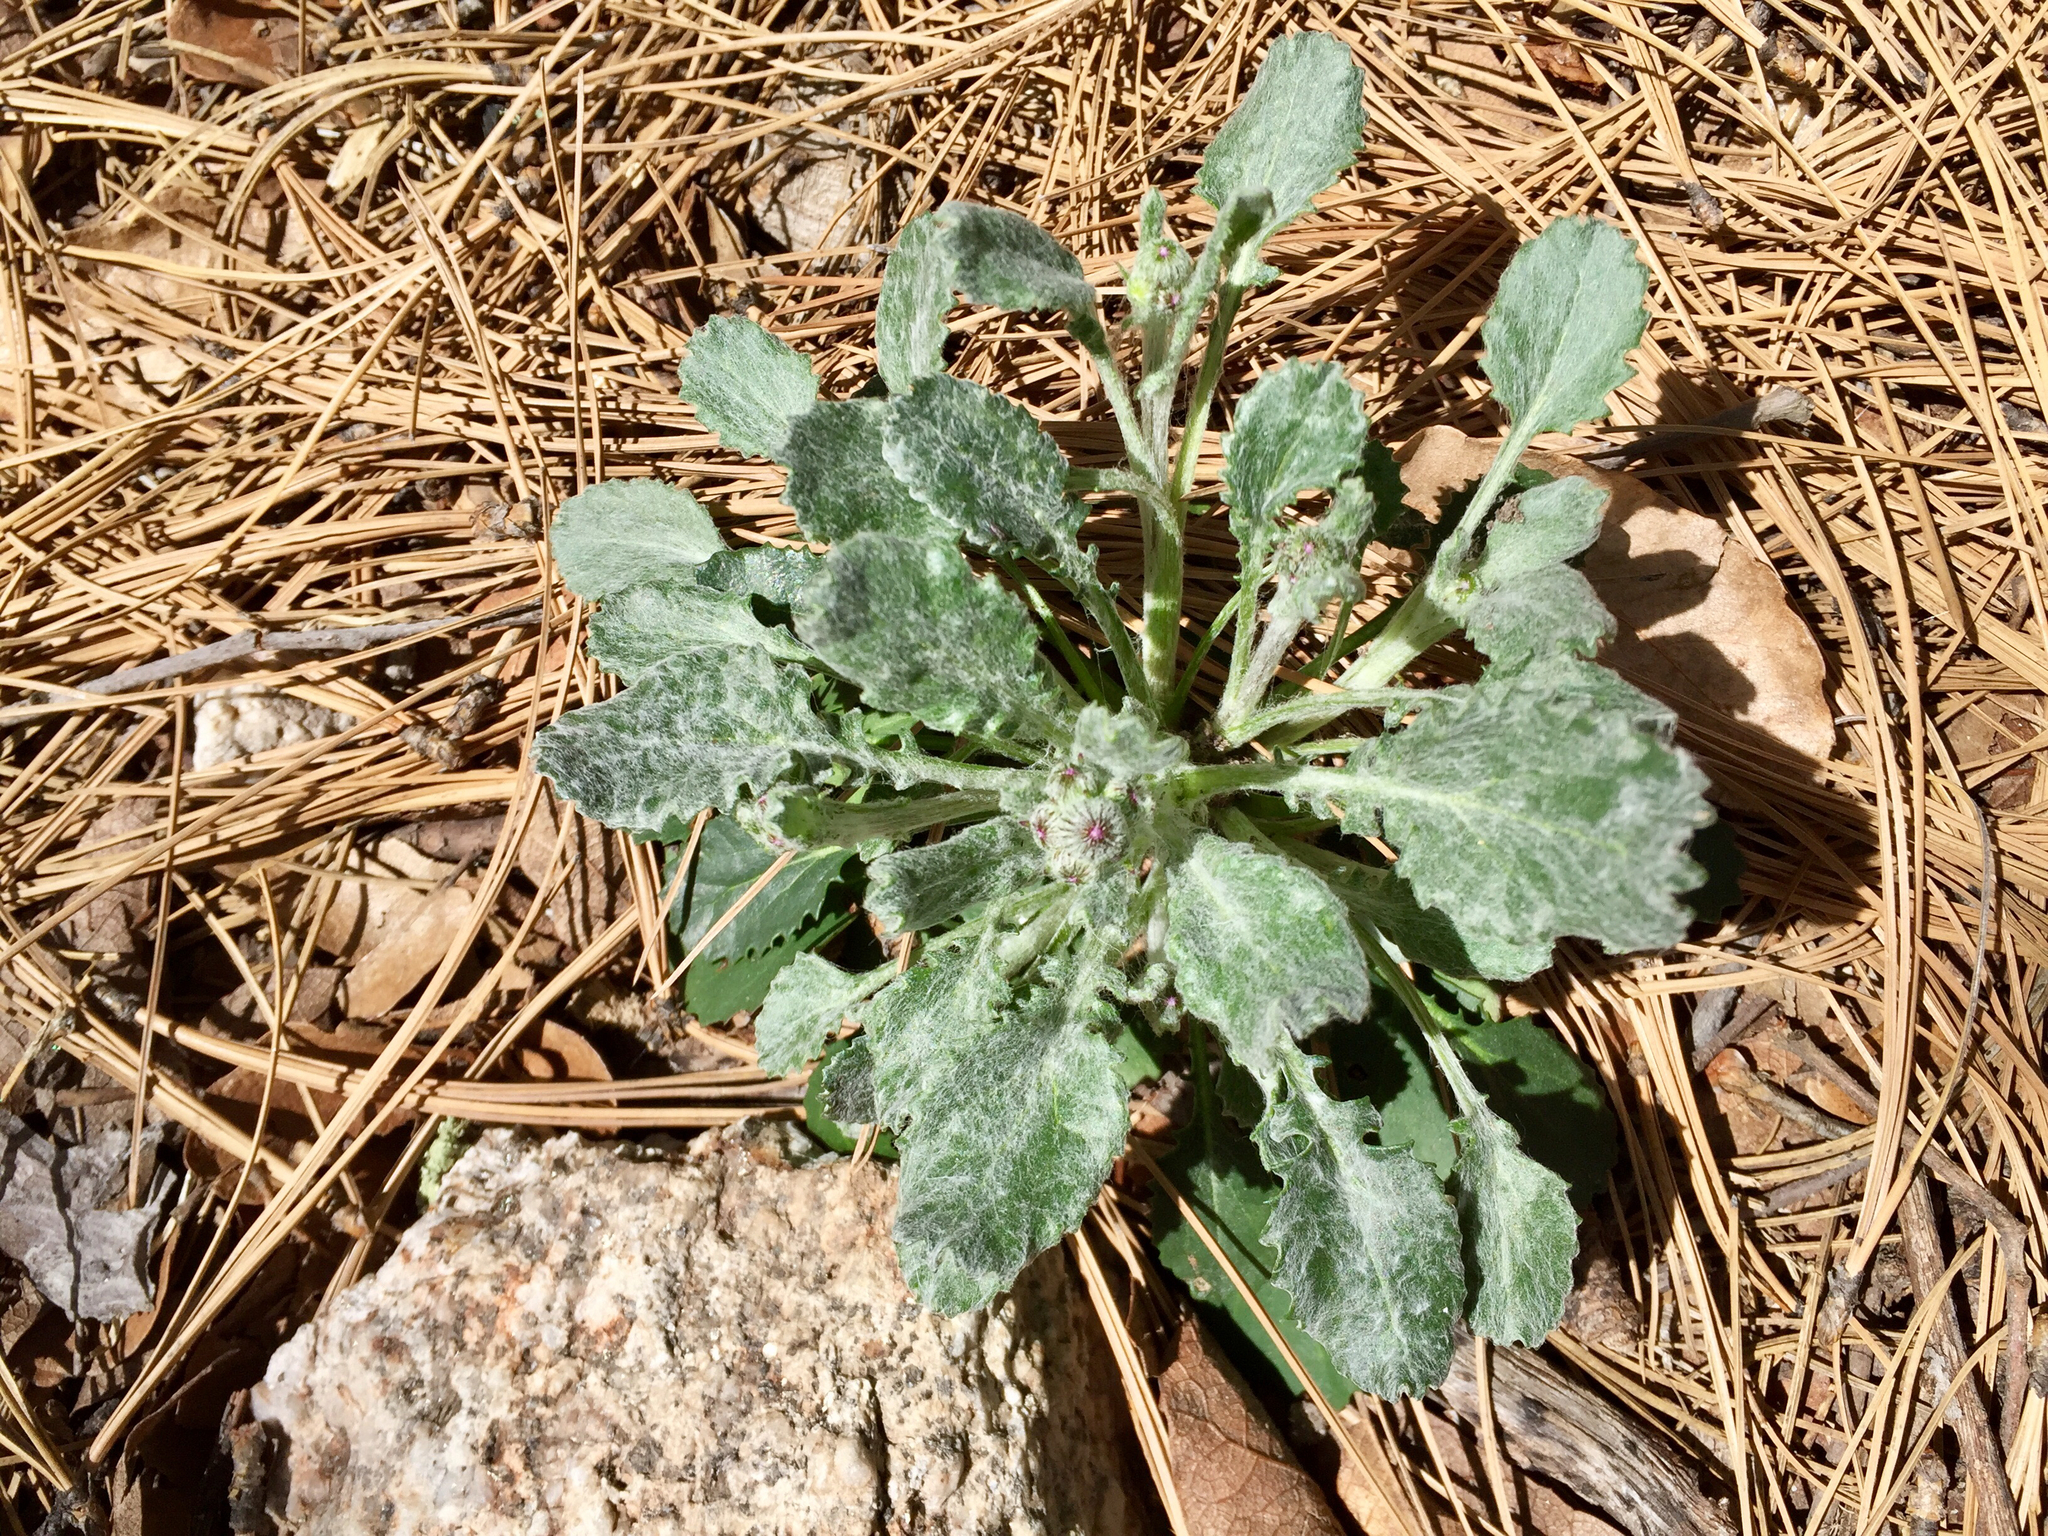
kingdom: Plantae
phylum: Tracheophyta
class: Magnoliopsida
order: Asterales
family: Asteraceae
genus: Packera
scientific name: Packera neomexicana
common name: New mexico butterweed
